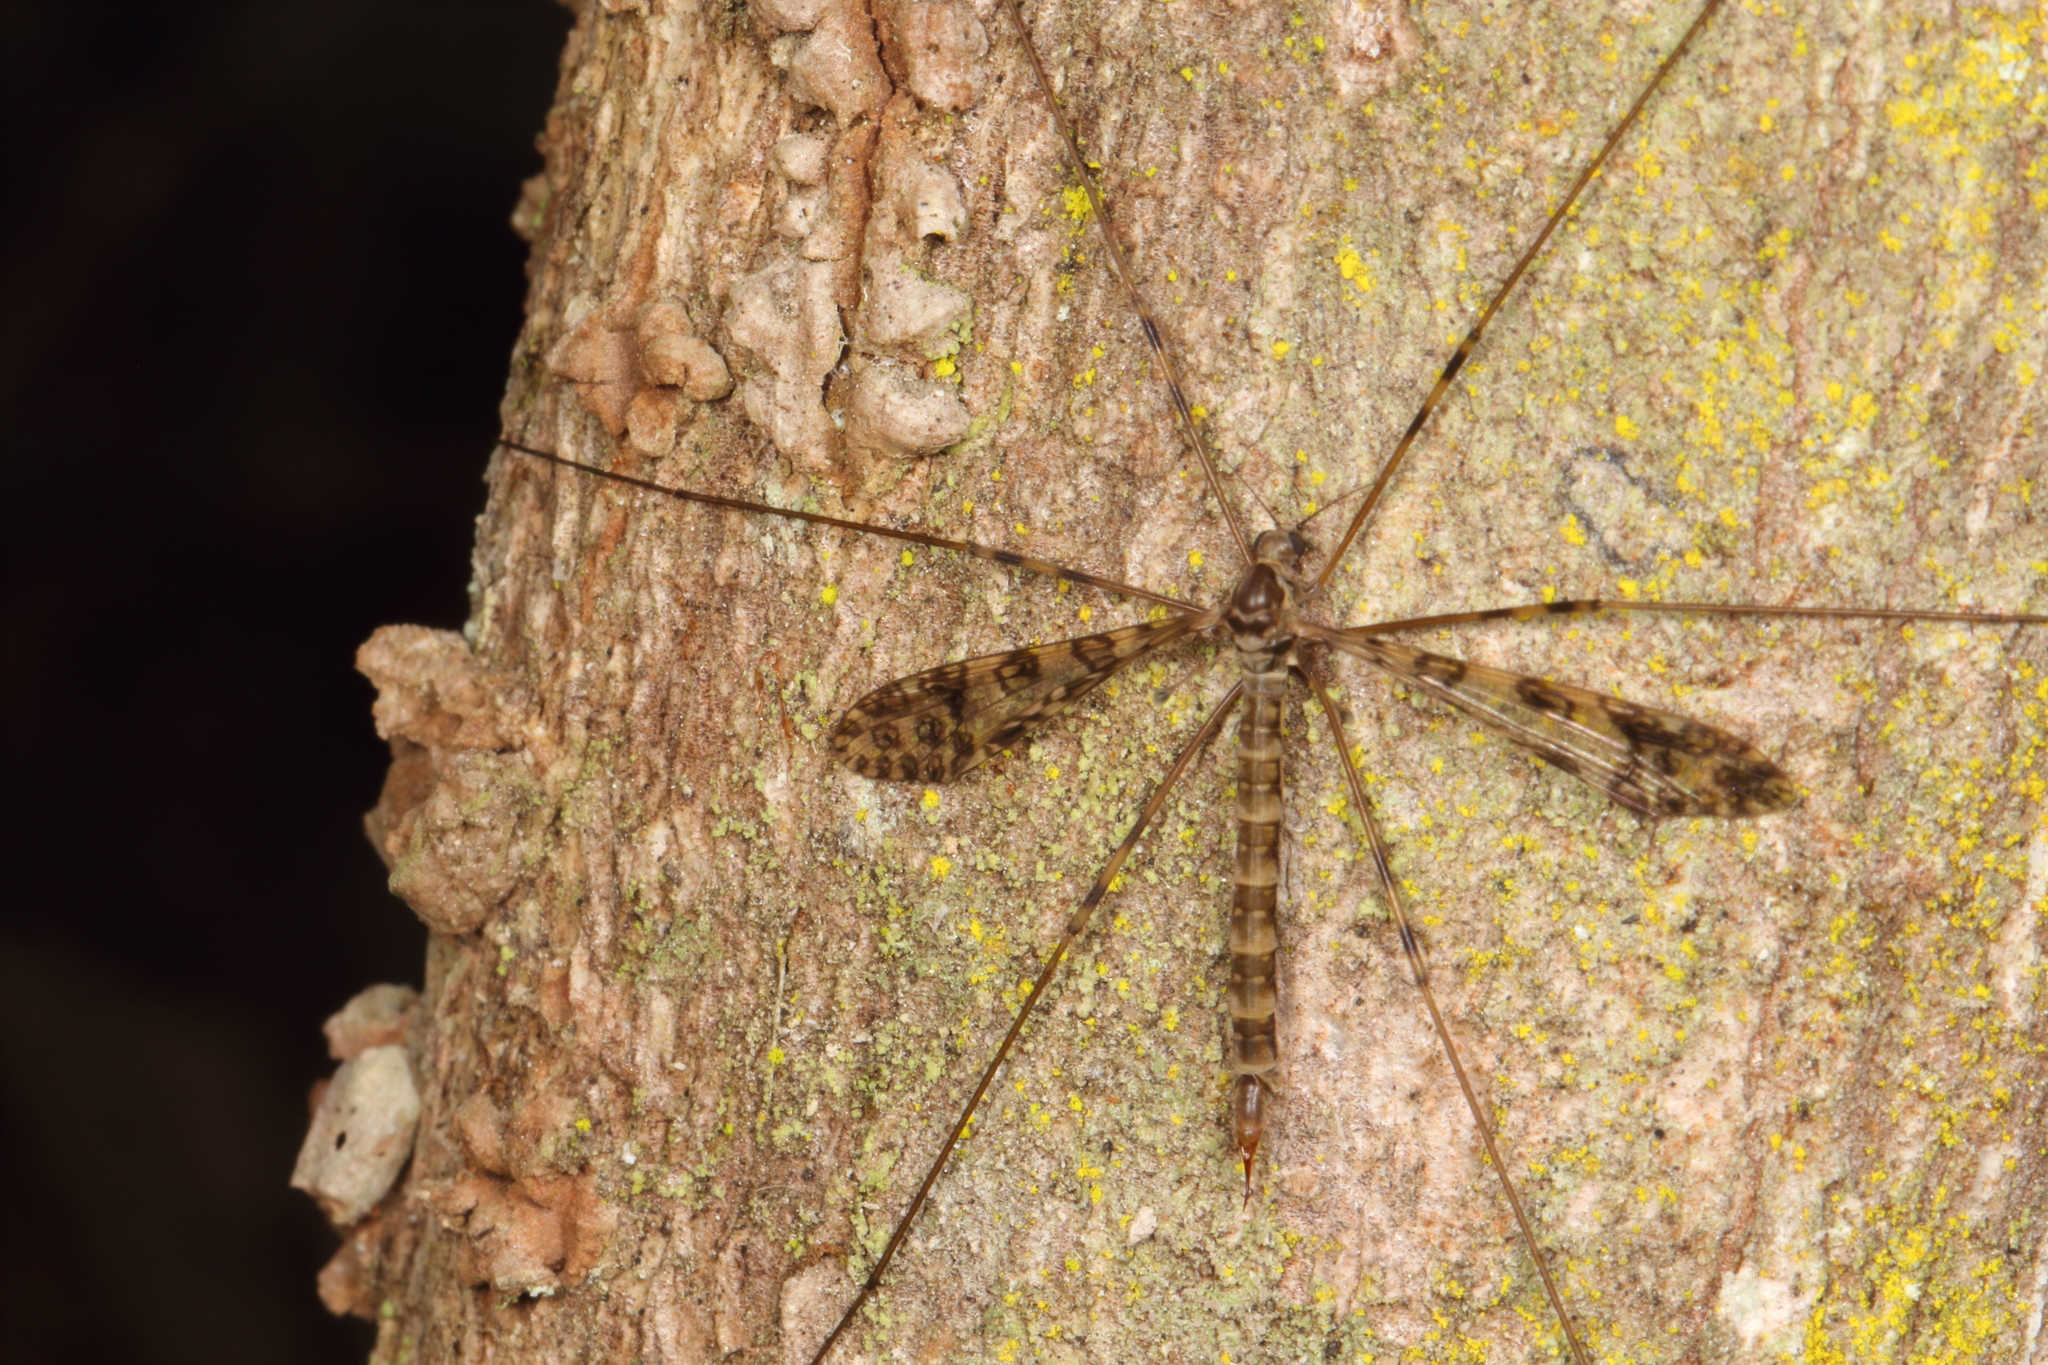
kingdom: Animalia
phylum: Arthropoda
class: Insecta
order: Diptera
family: Limoniidae
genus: Austrolimnophila
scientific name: Austrolimnophila argus
